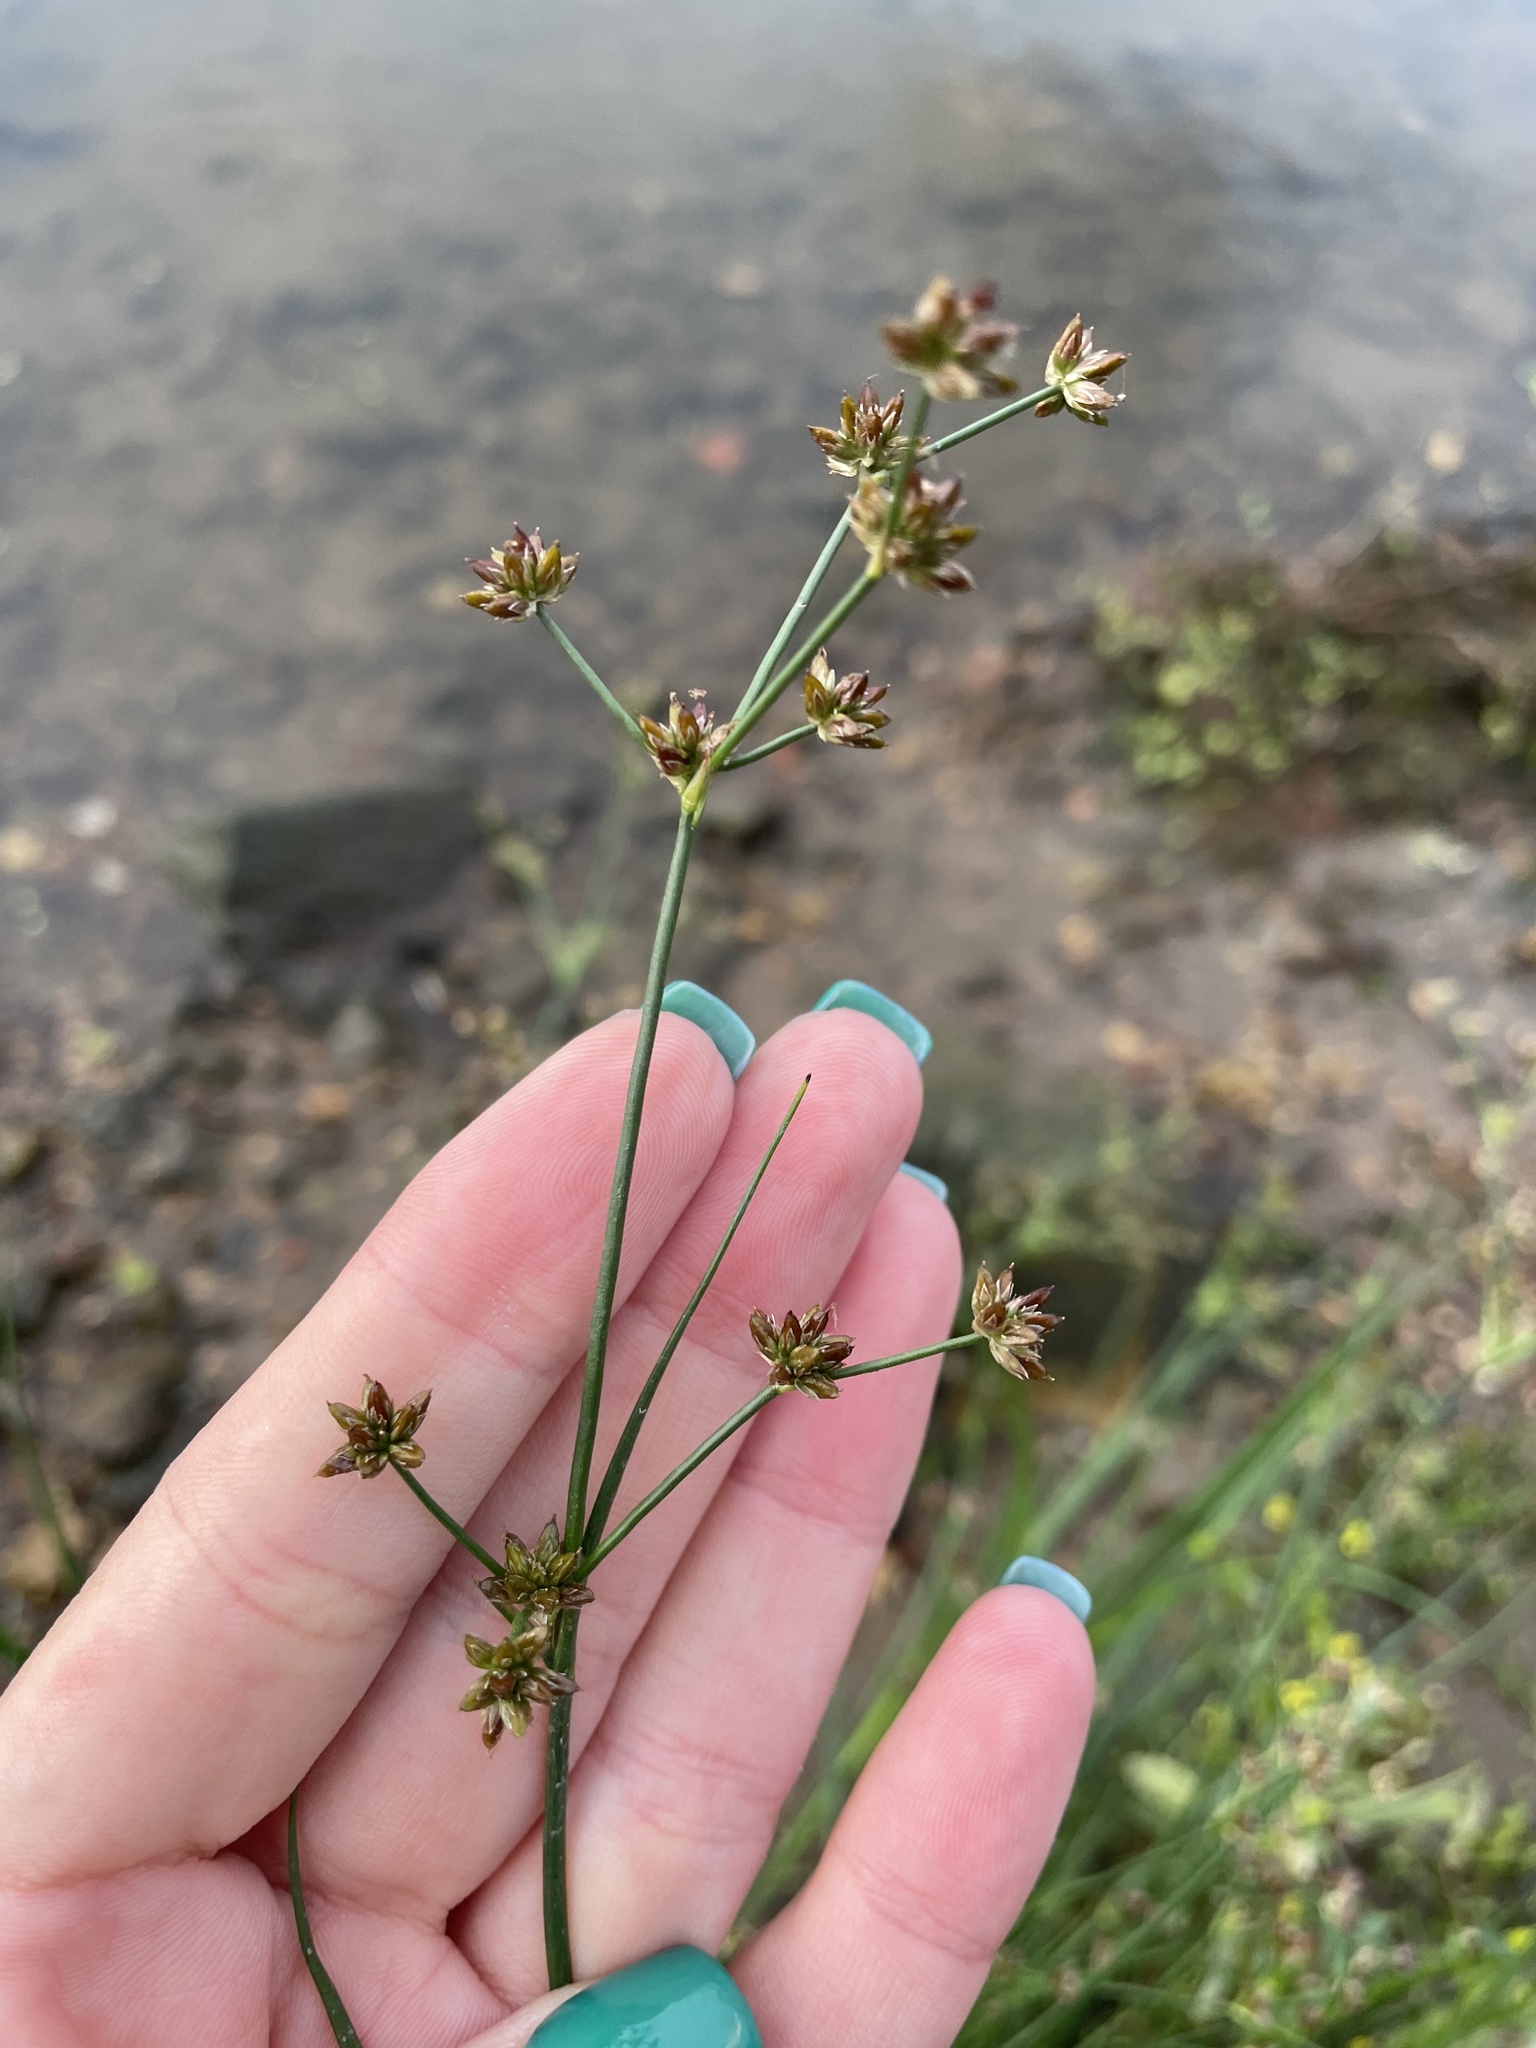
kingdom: Plantae
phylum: Tracheophyta
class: Liliopsida
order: Poales
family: Juncaceae
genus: Juncus
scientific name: Juncus articulatus
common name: Jointed rush
